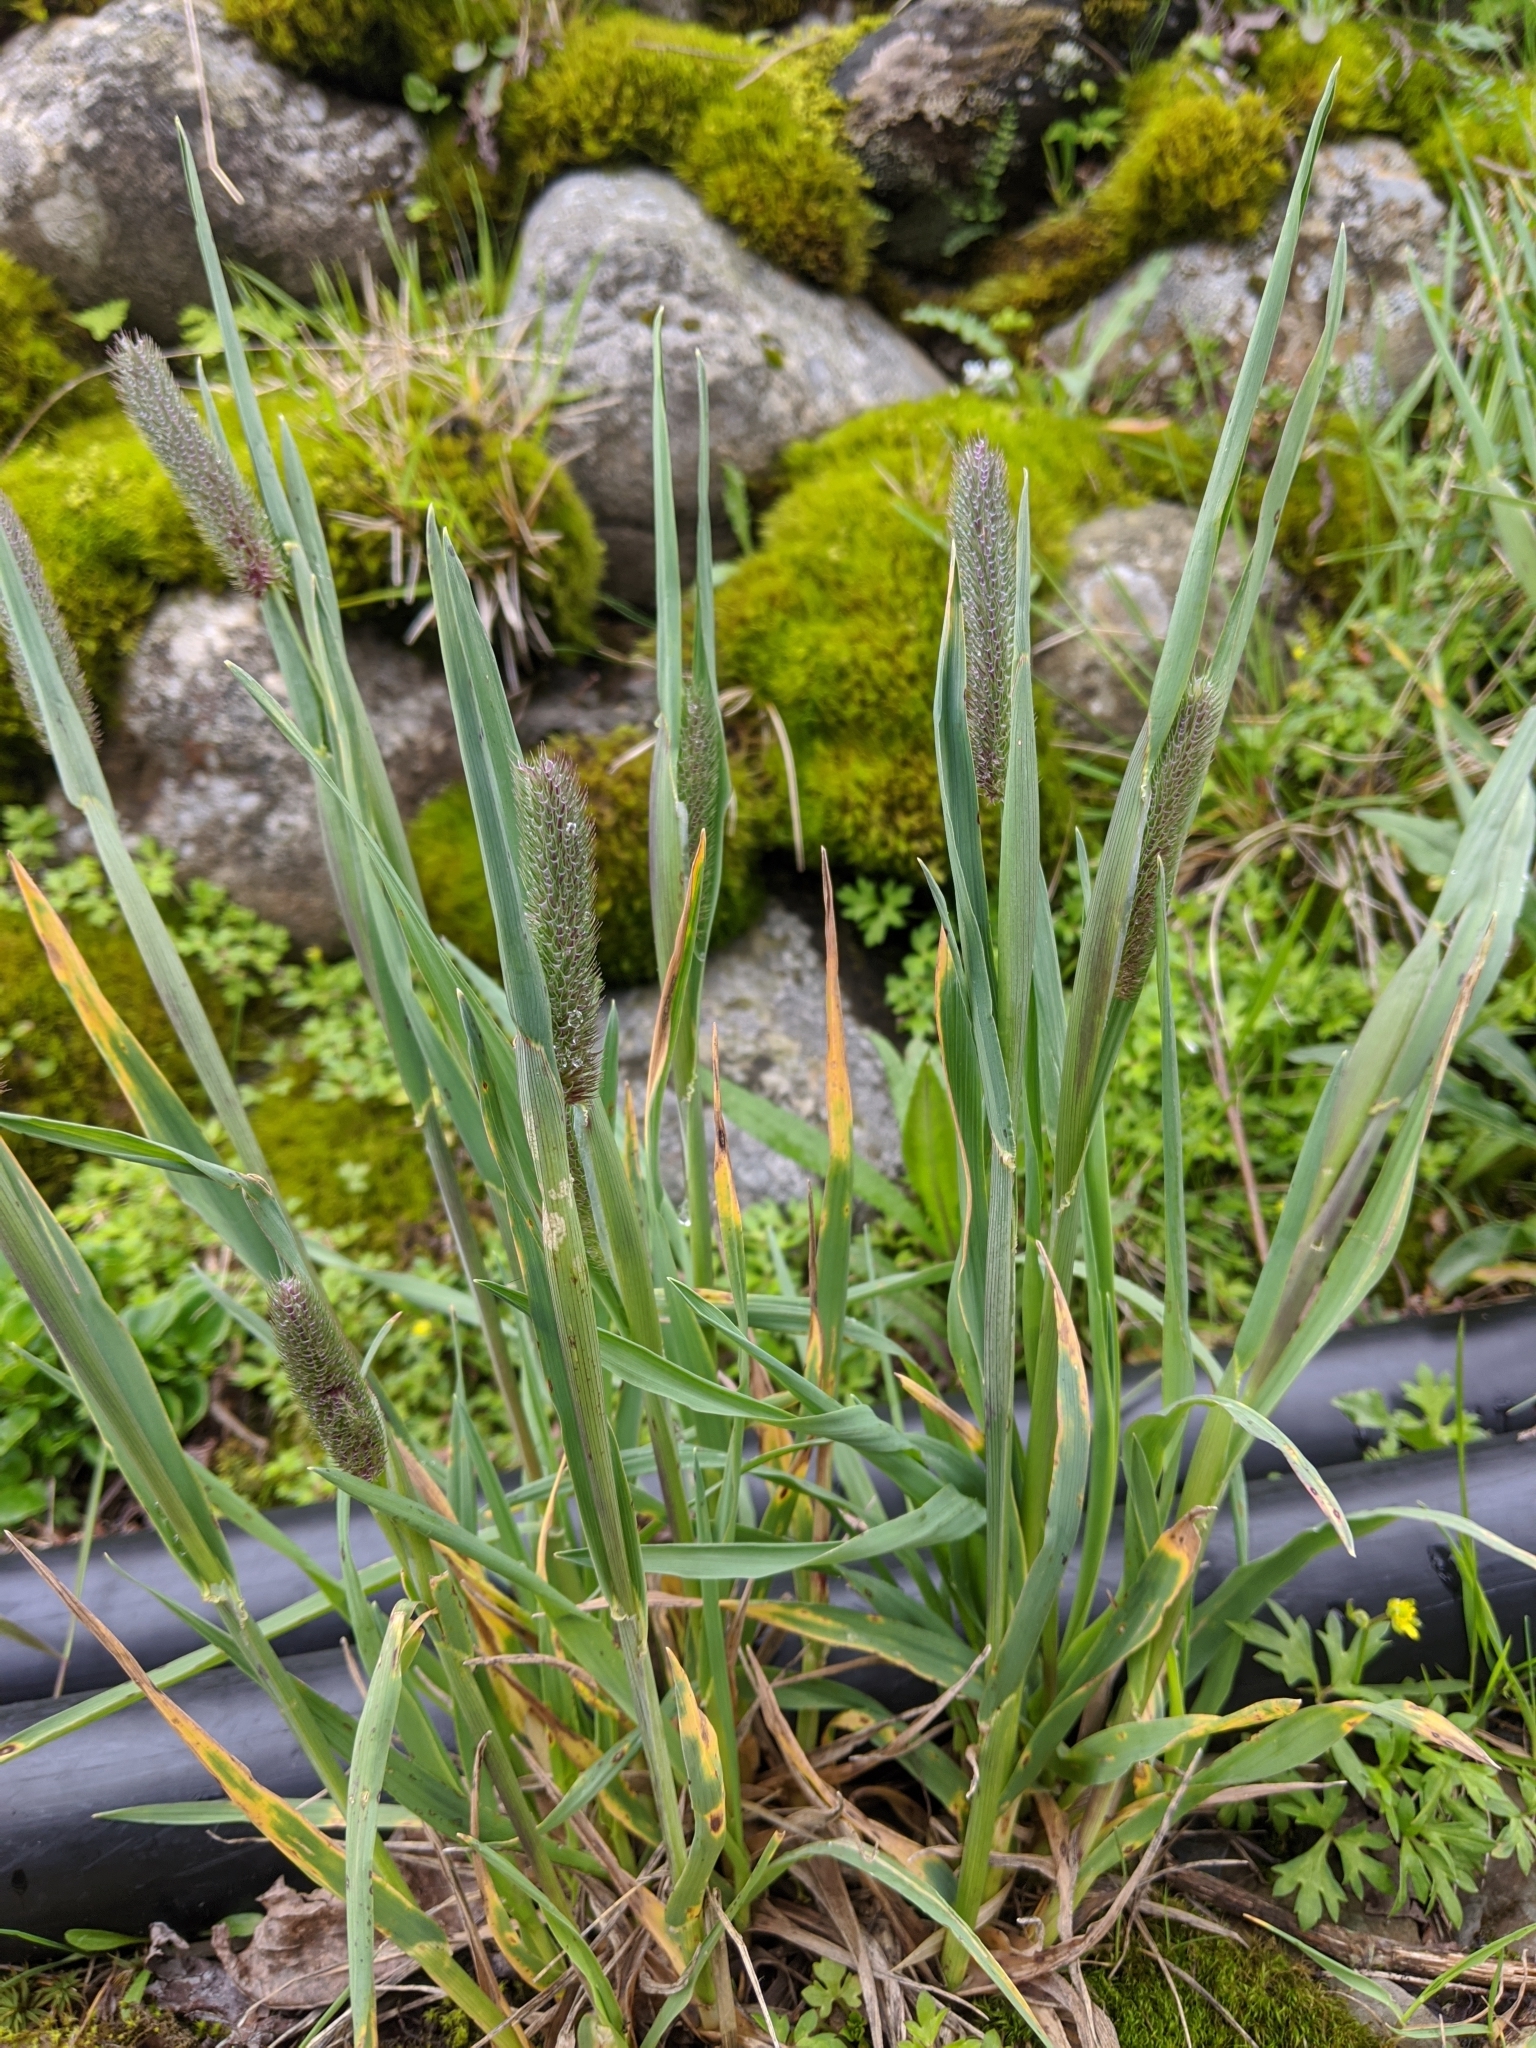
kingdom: Plantae
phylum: Tracheophyta
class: Liliopsida
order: Poales
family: Poaceae
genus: Phleum
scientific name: Phleum alpinum
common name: Alpine cat's-tail
